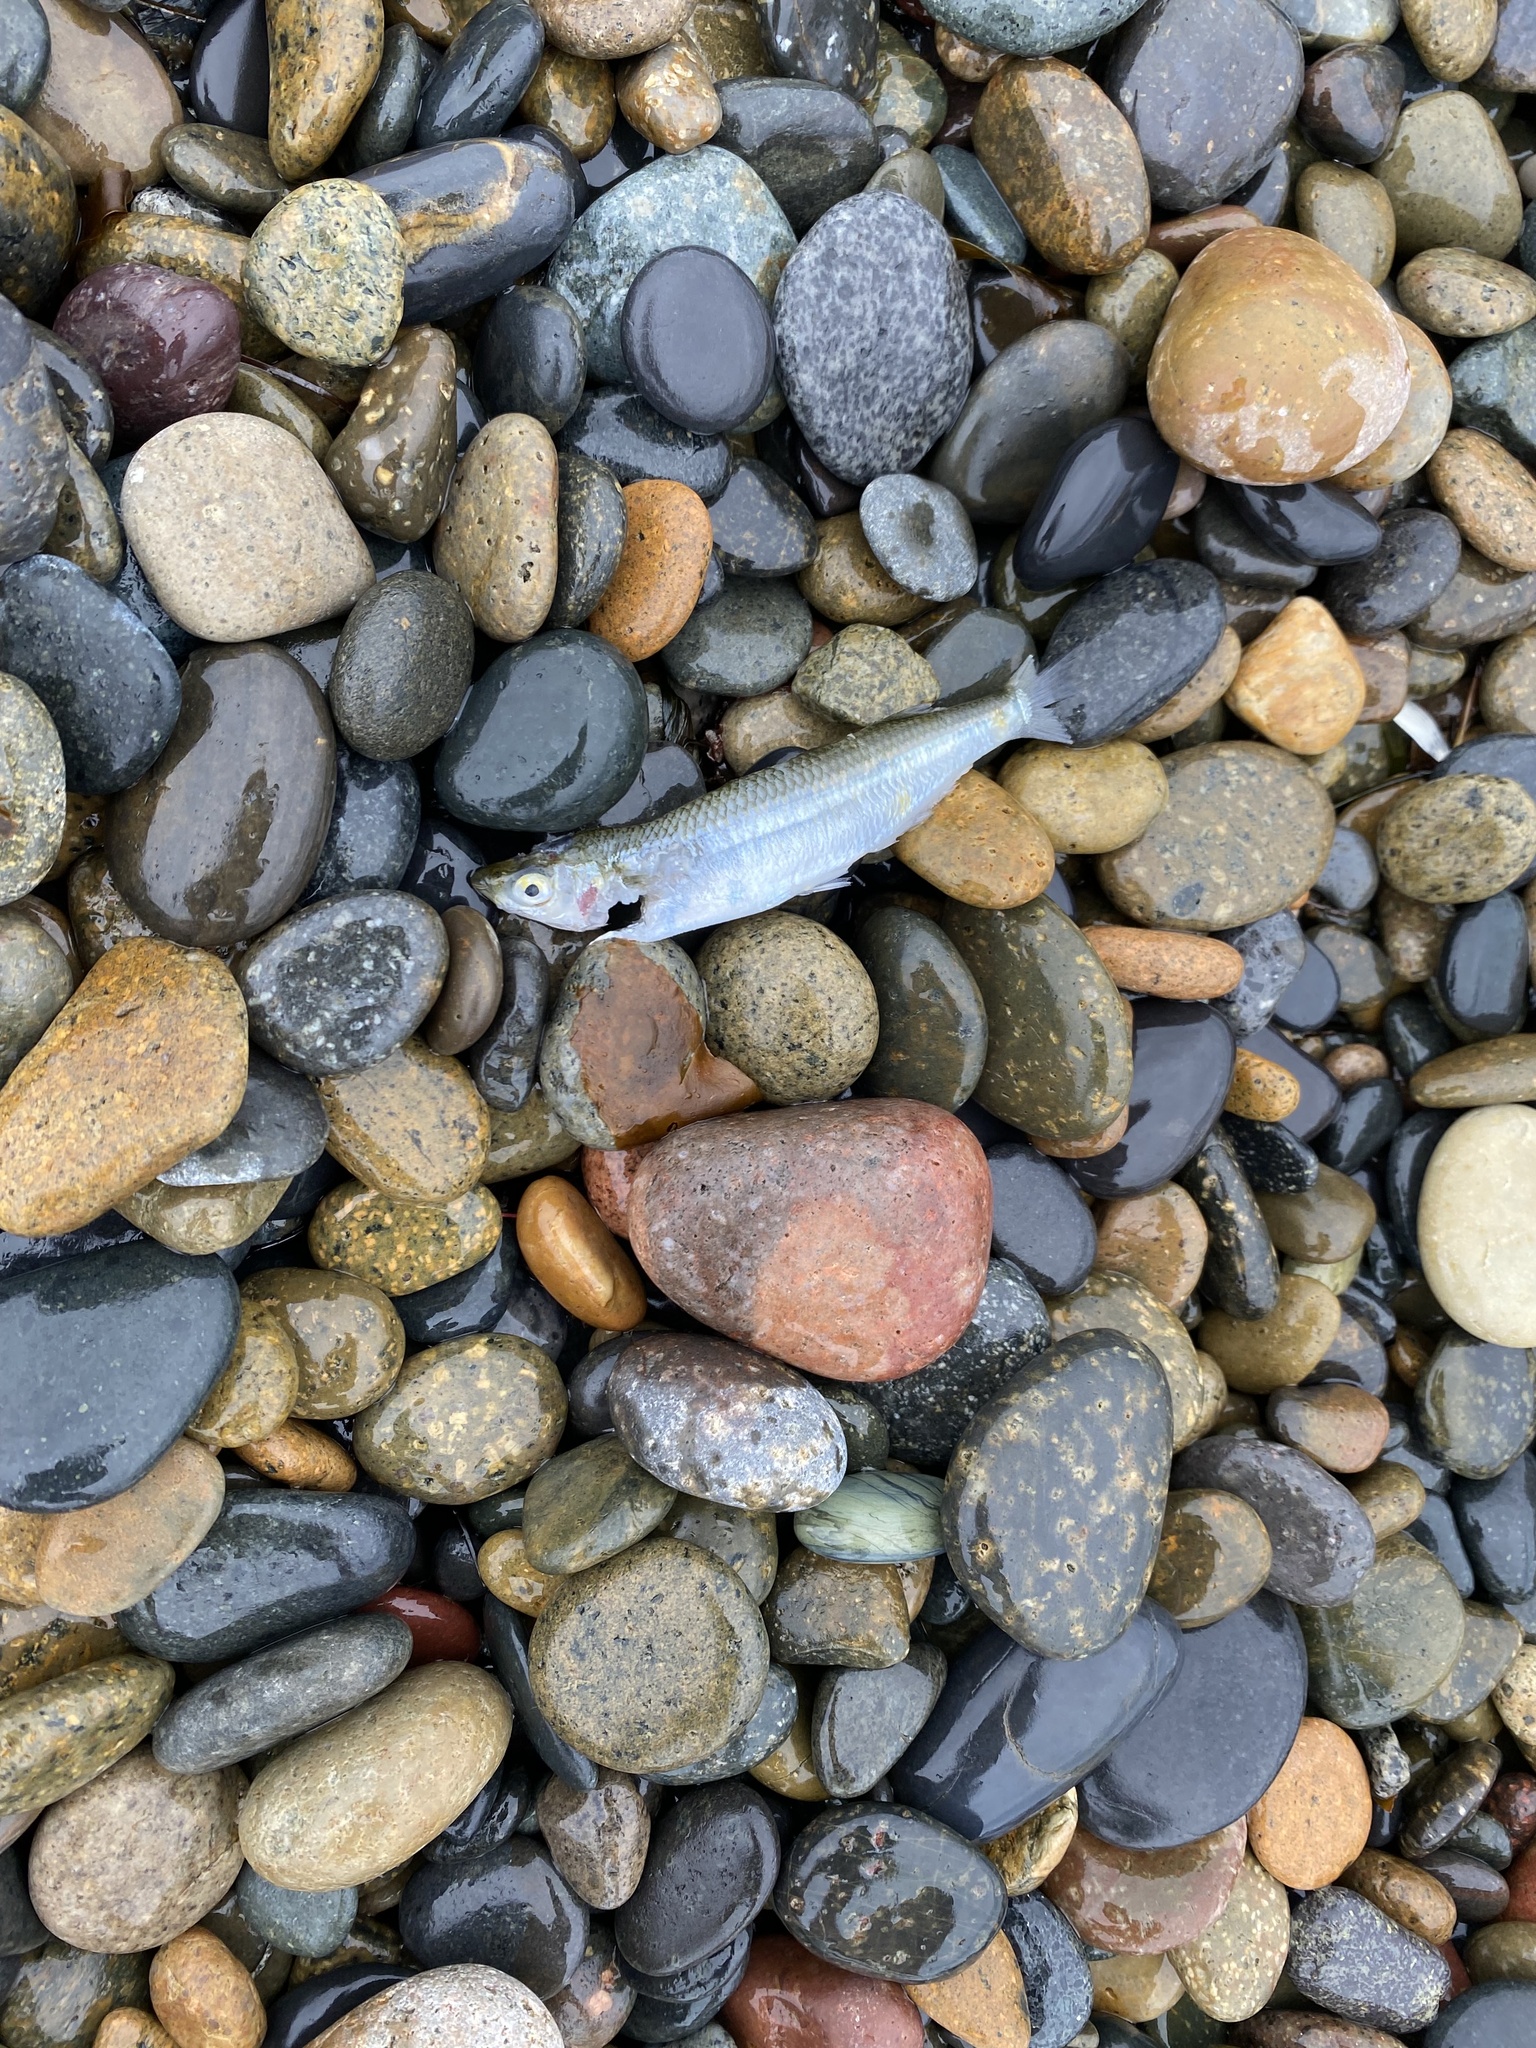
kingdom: Animalia
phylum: Chordata
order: Atheriniformes
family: Atherinopsidae
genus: Atherinops
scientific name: Atherinops affinis
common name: Topsmelt
